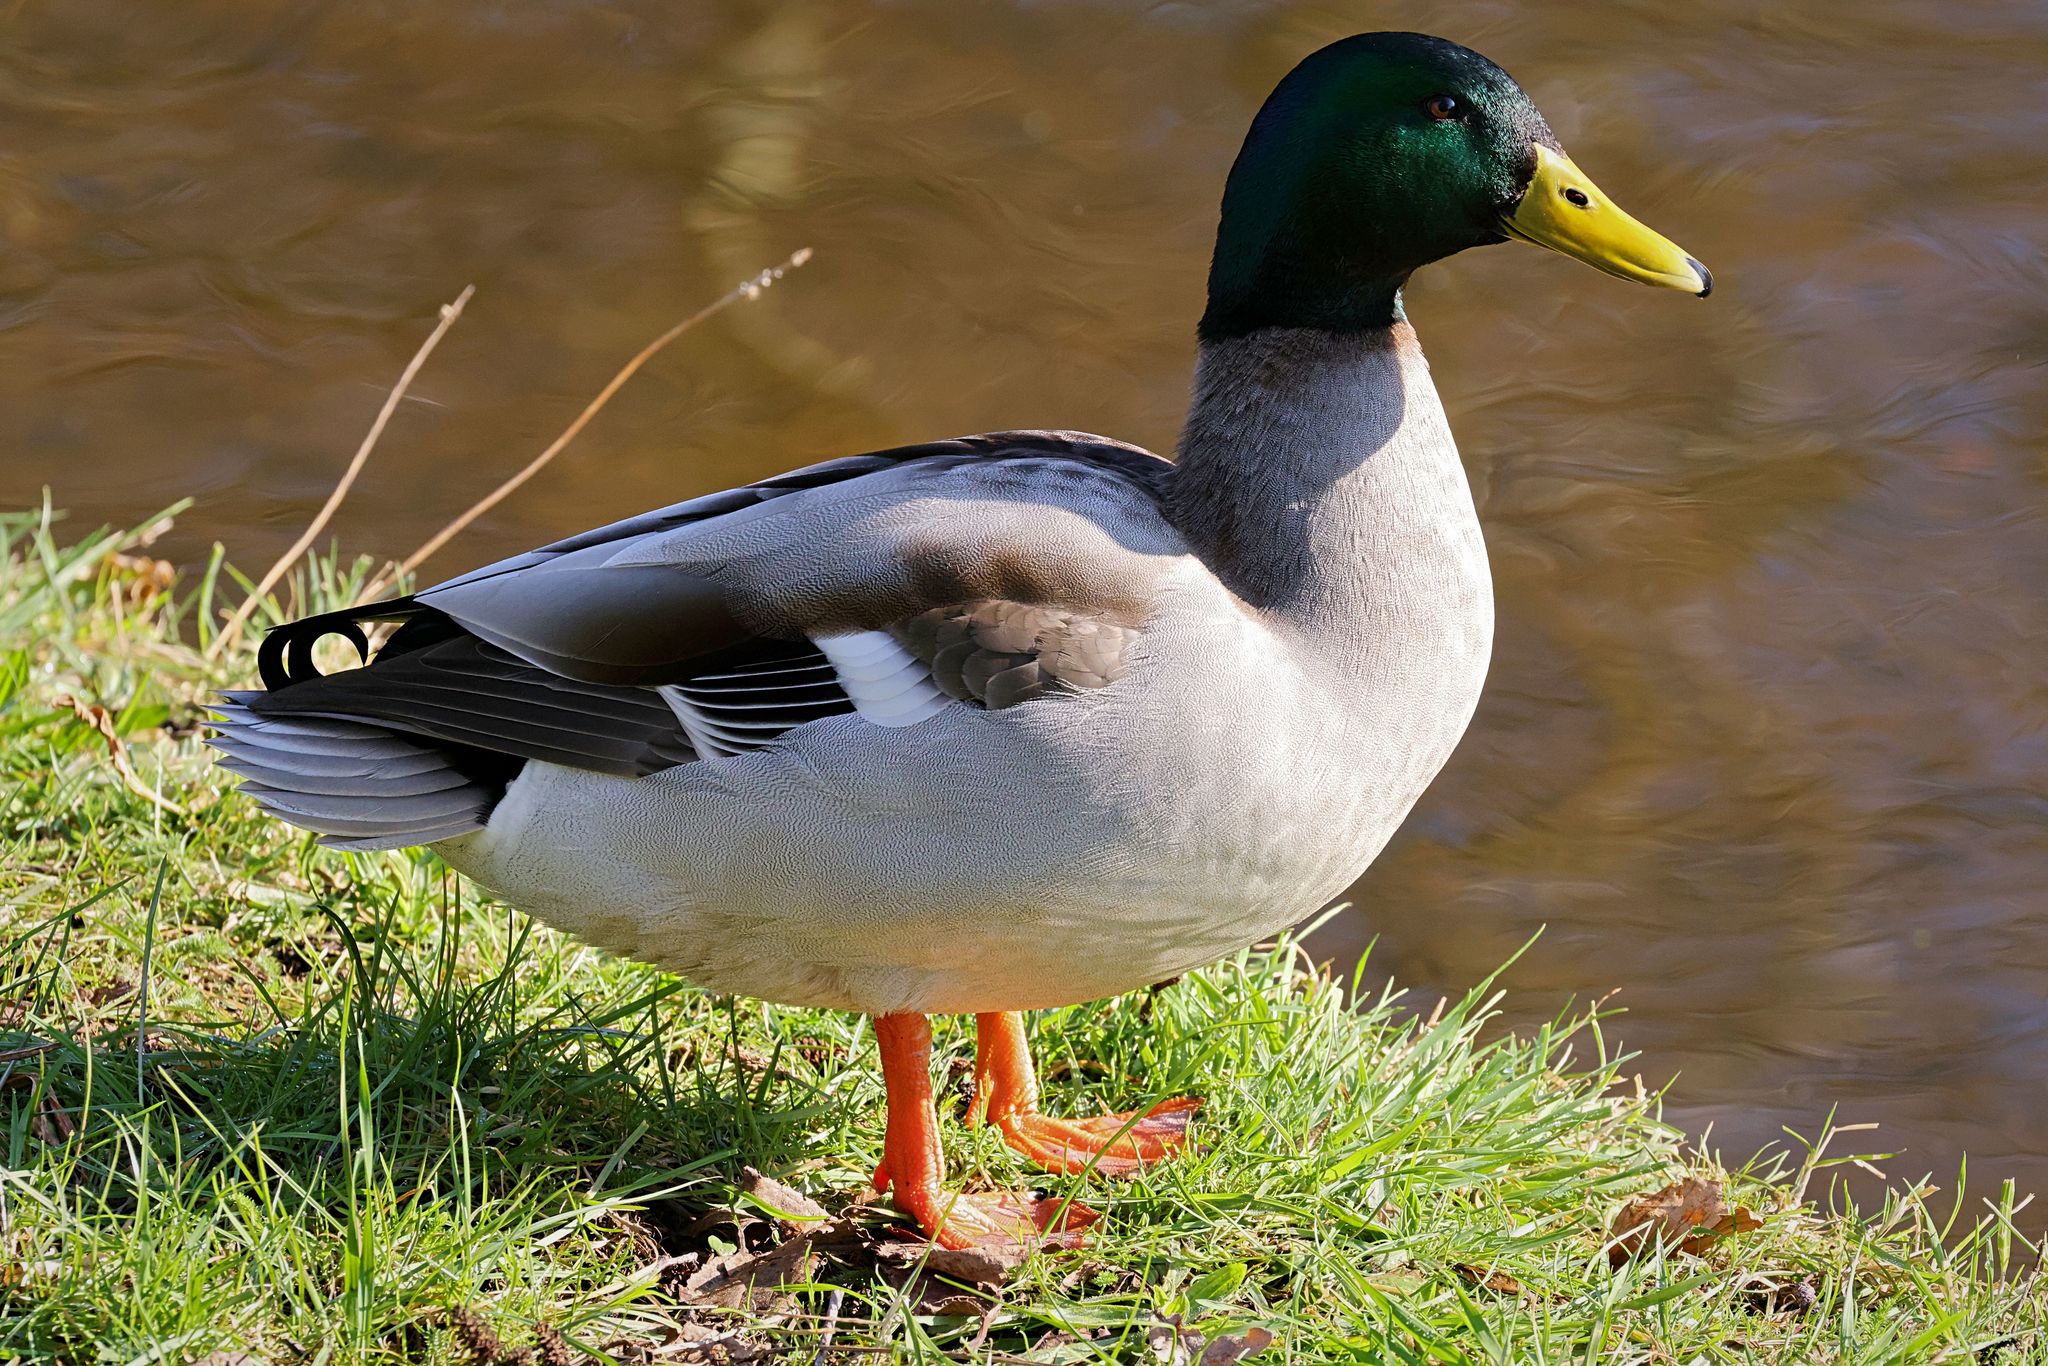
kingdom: Animalia
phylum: Chordata
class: Aves
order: Anseriformes
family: Anatidae
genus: Anas
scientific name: Anas platyrhynchos
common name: Mallard
